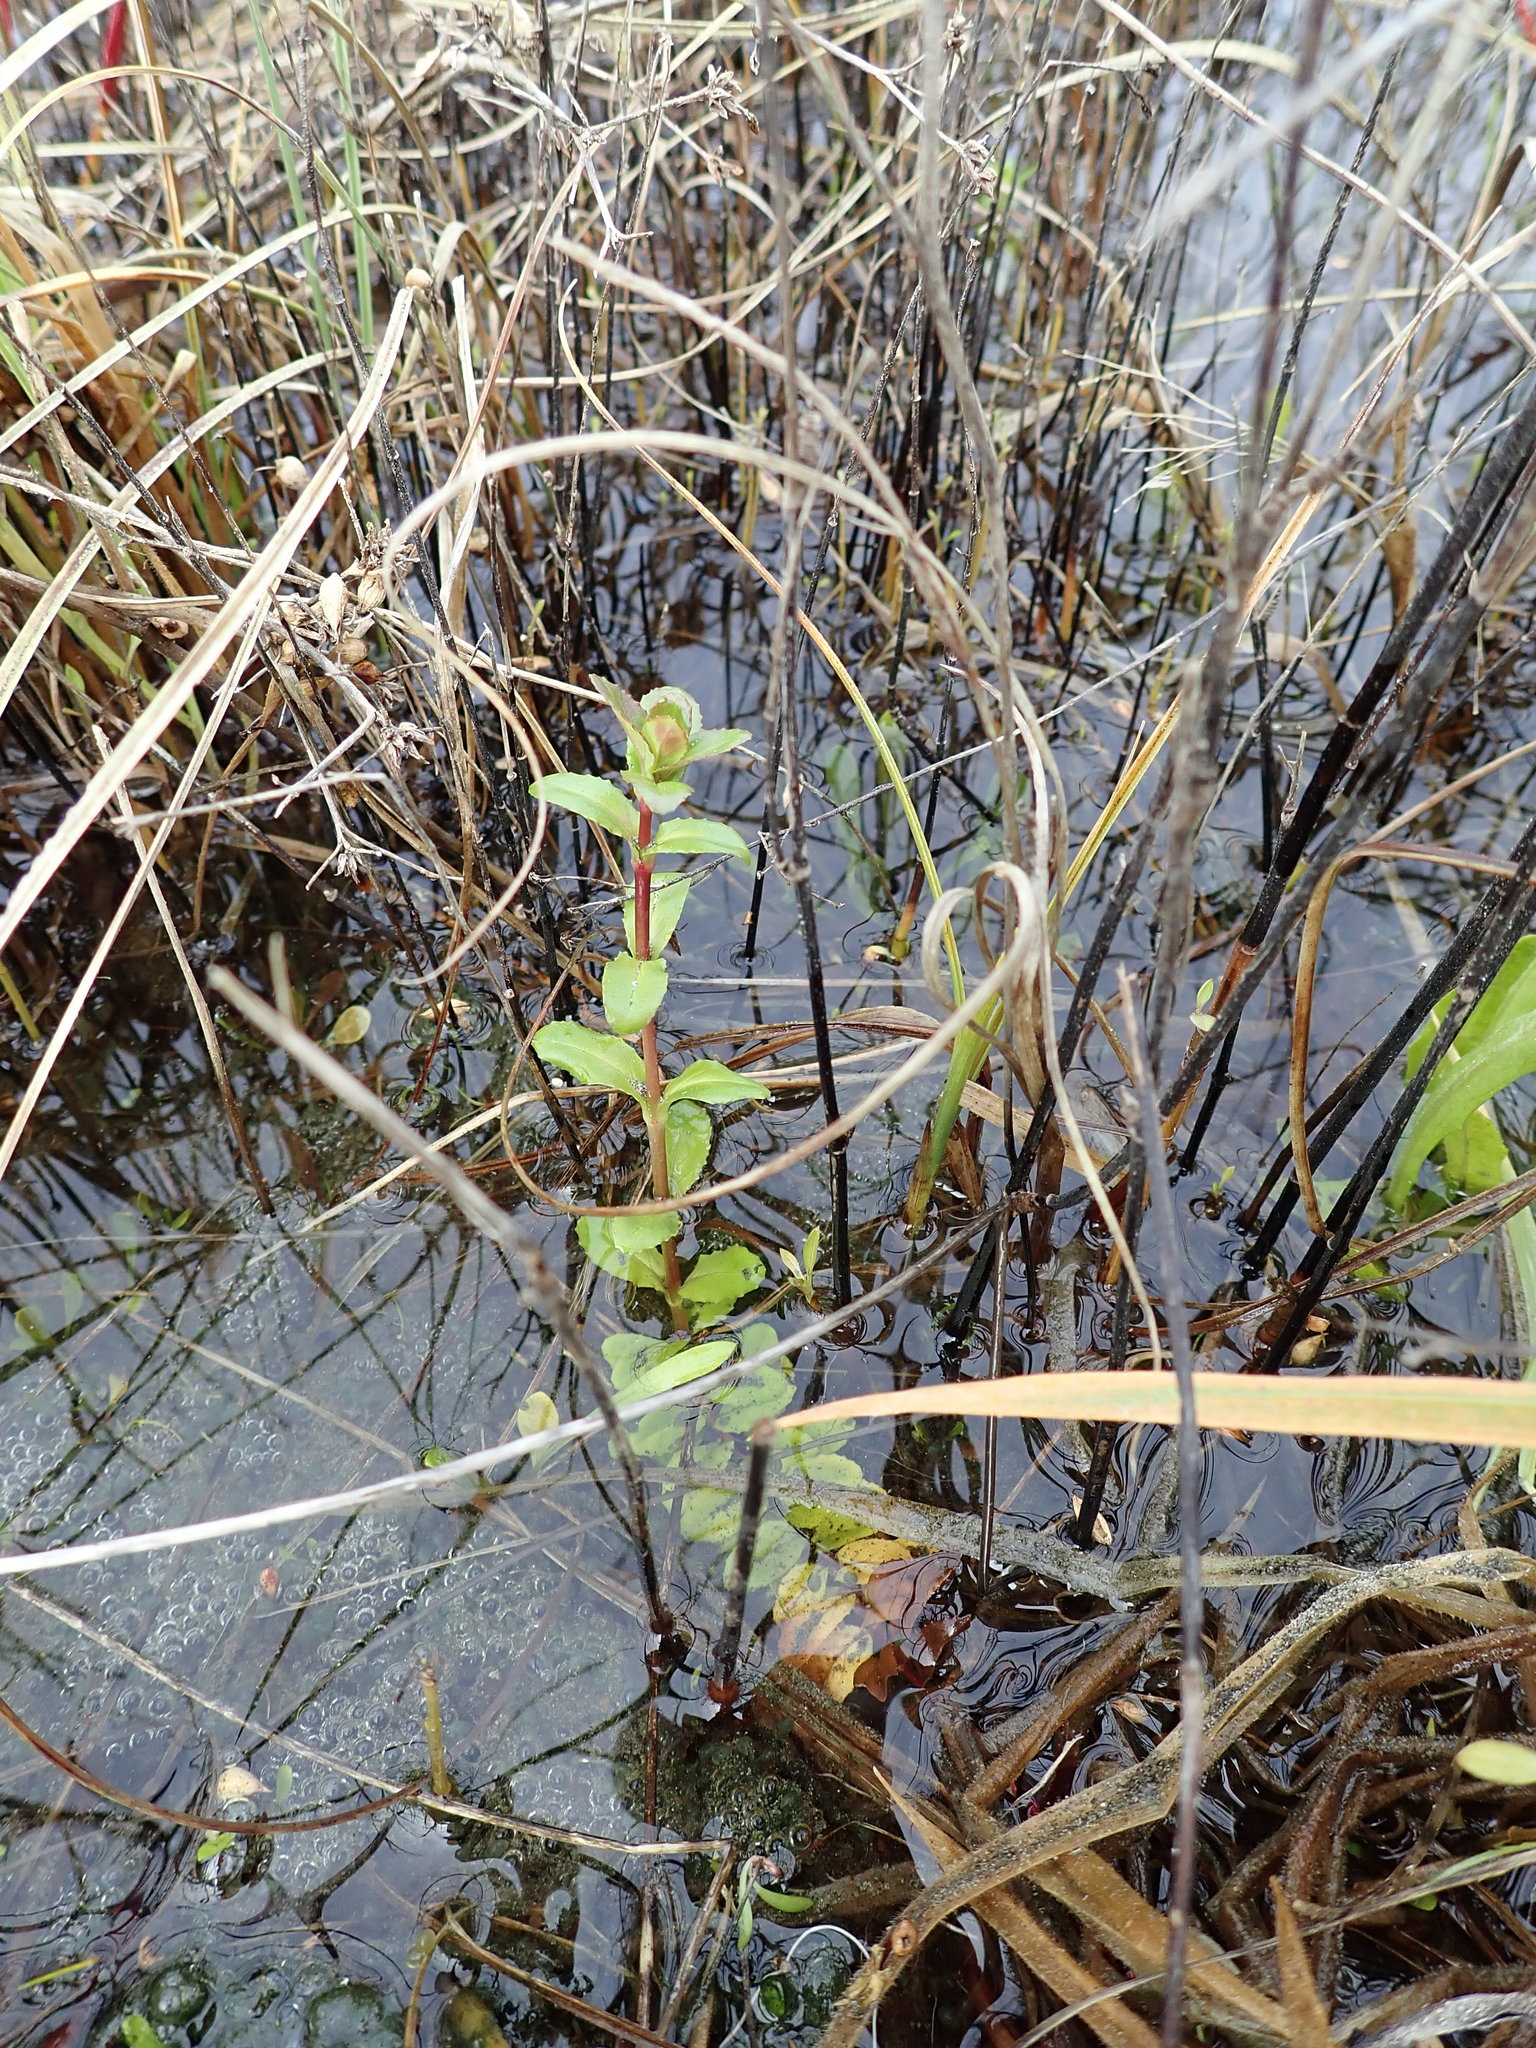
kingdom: Plantae
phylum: Tracheophyta
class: Magnoliopsida
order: Myrtales
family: Onagraceae
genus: Epilobium
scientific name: Epilobium billardiereanum
